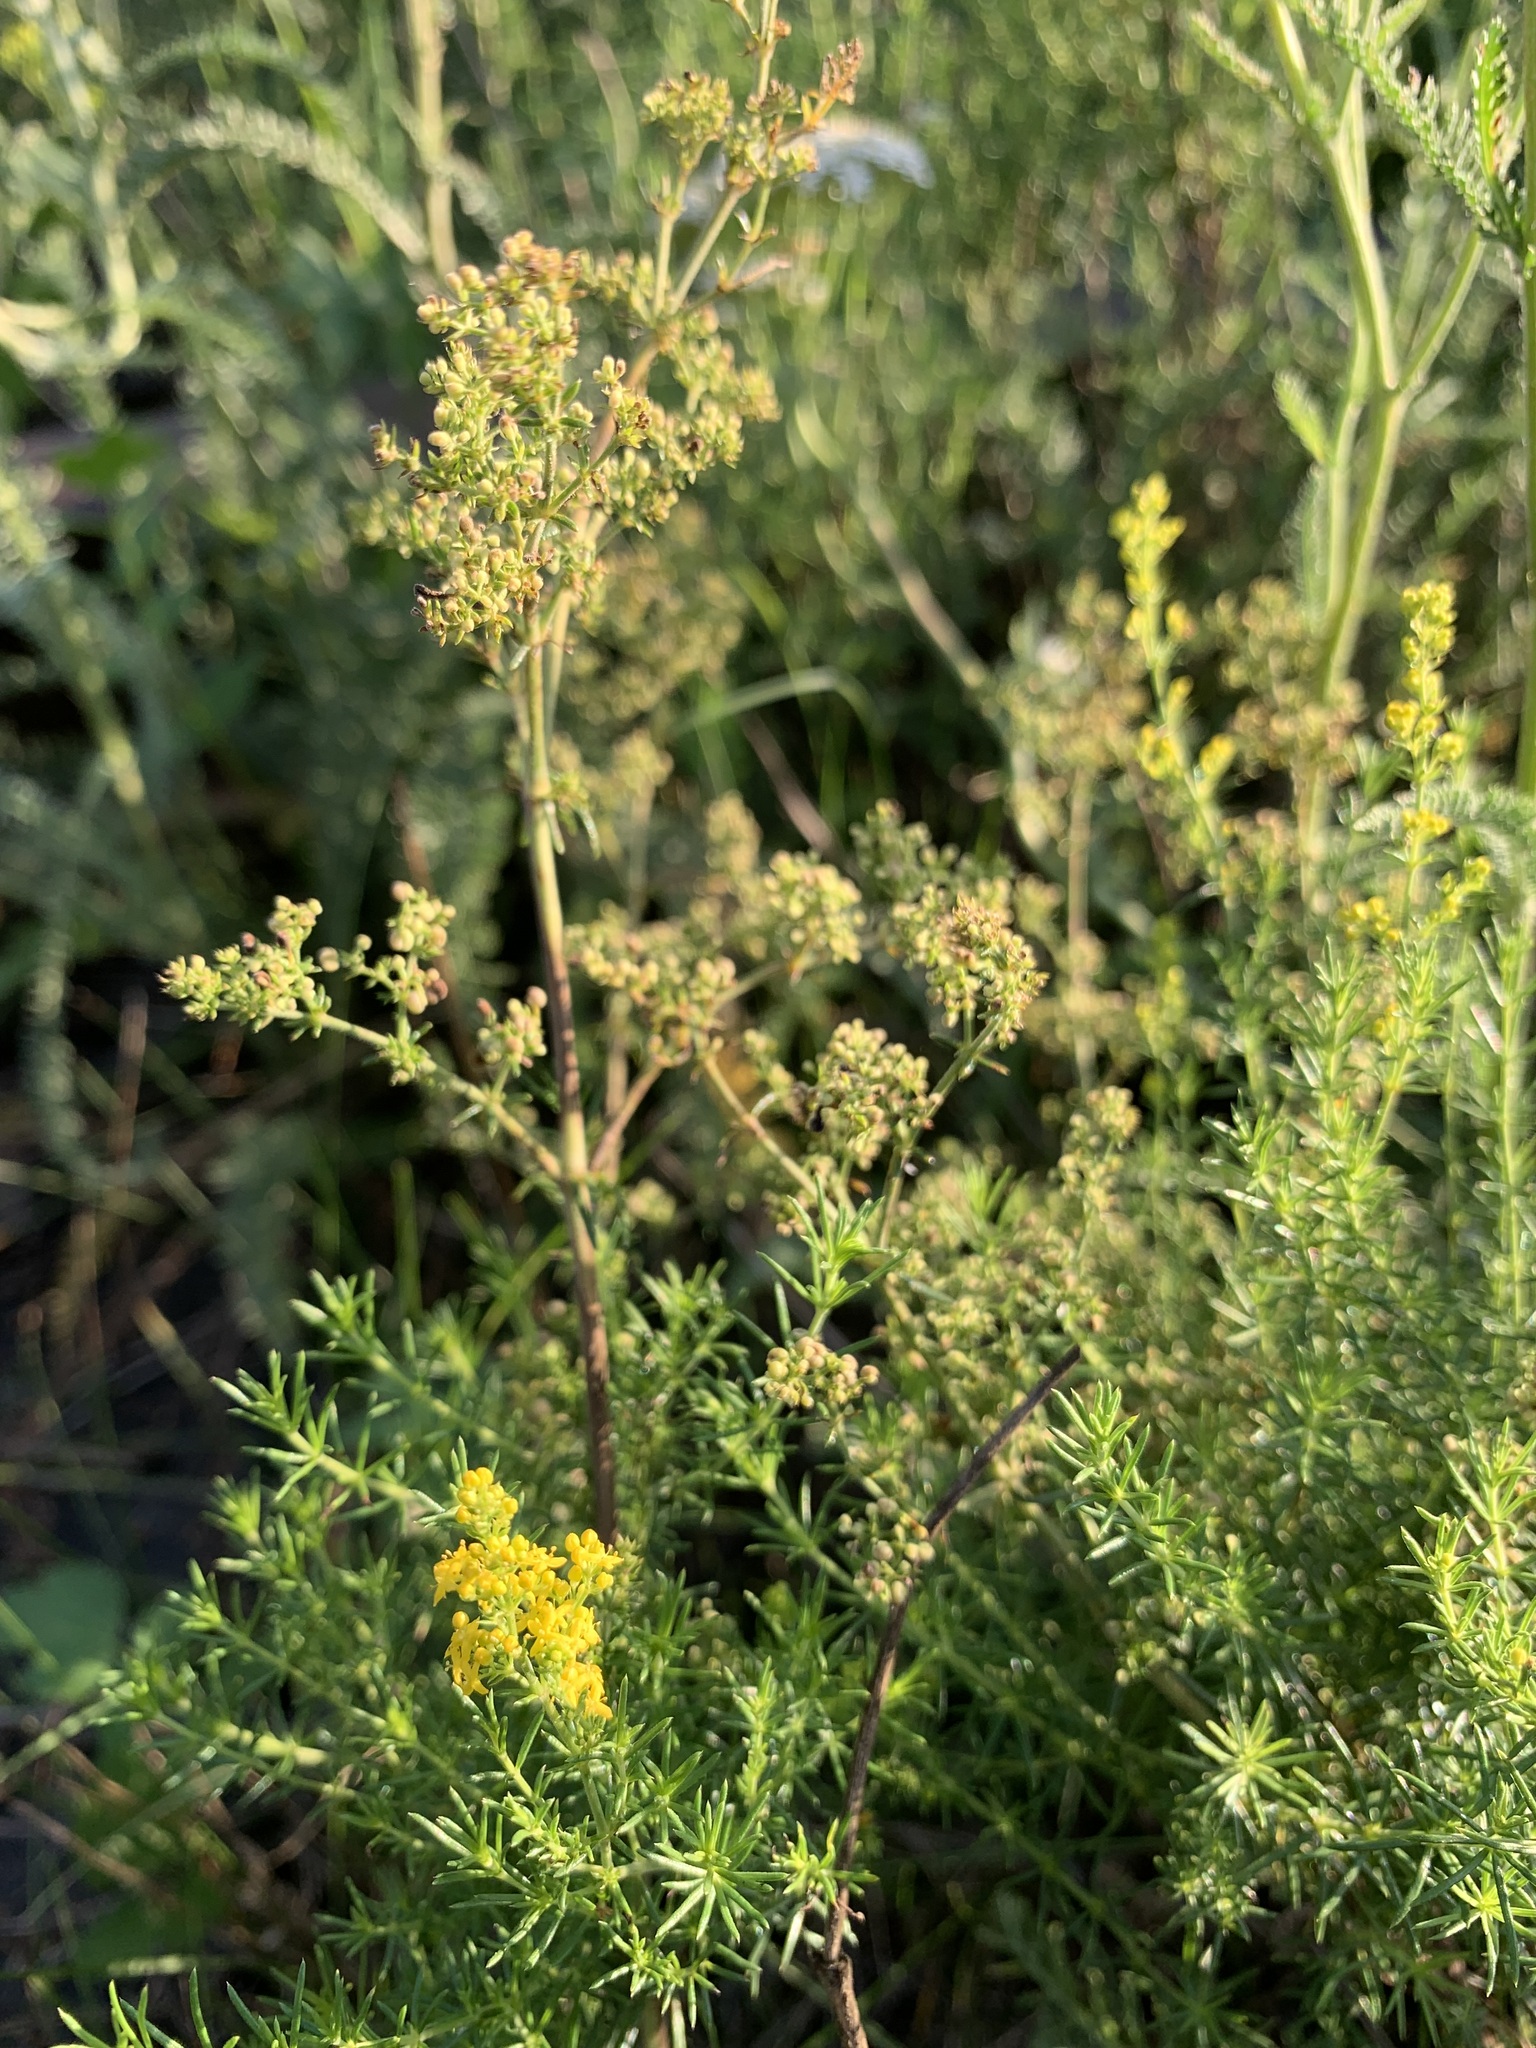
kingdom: Plantae
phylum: Tracheophyta
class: Magnoliopsida
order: Gentianales
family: Rubiaceae
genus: Galium
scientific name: Galium verum
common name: Lady's bedstraw
